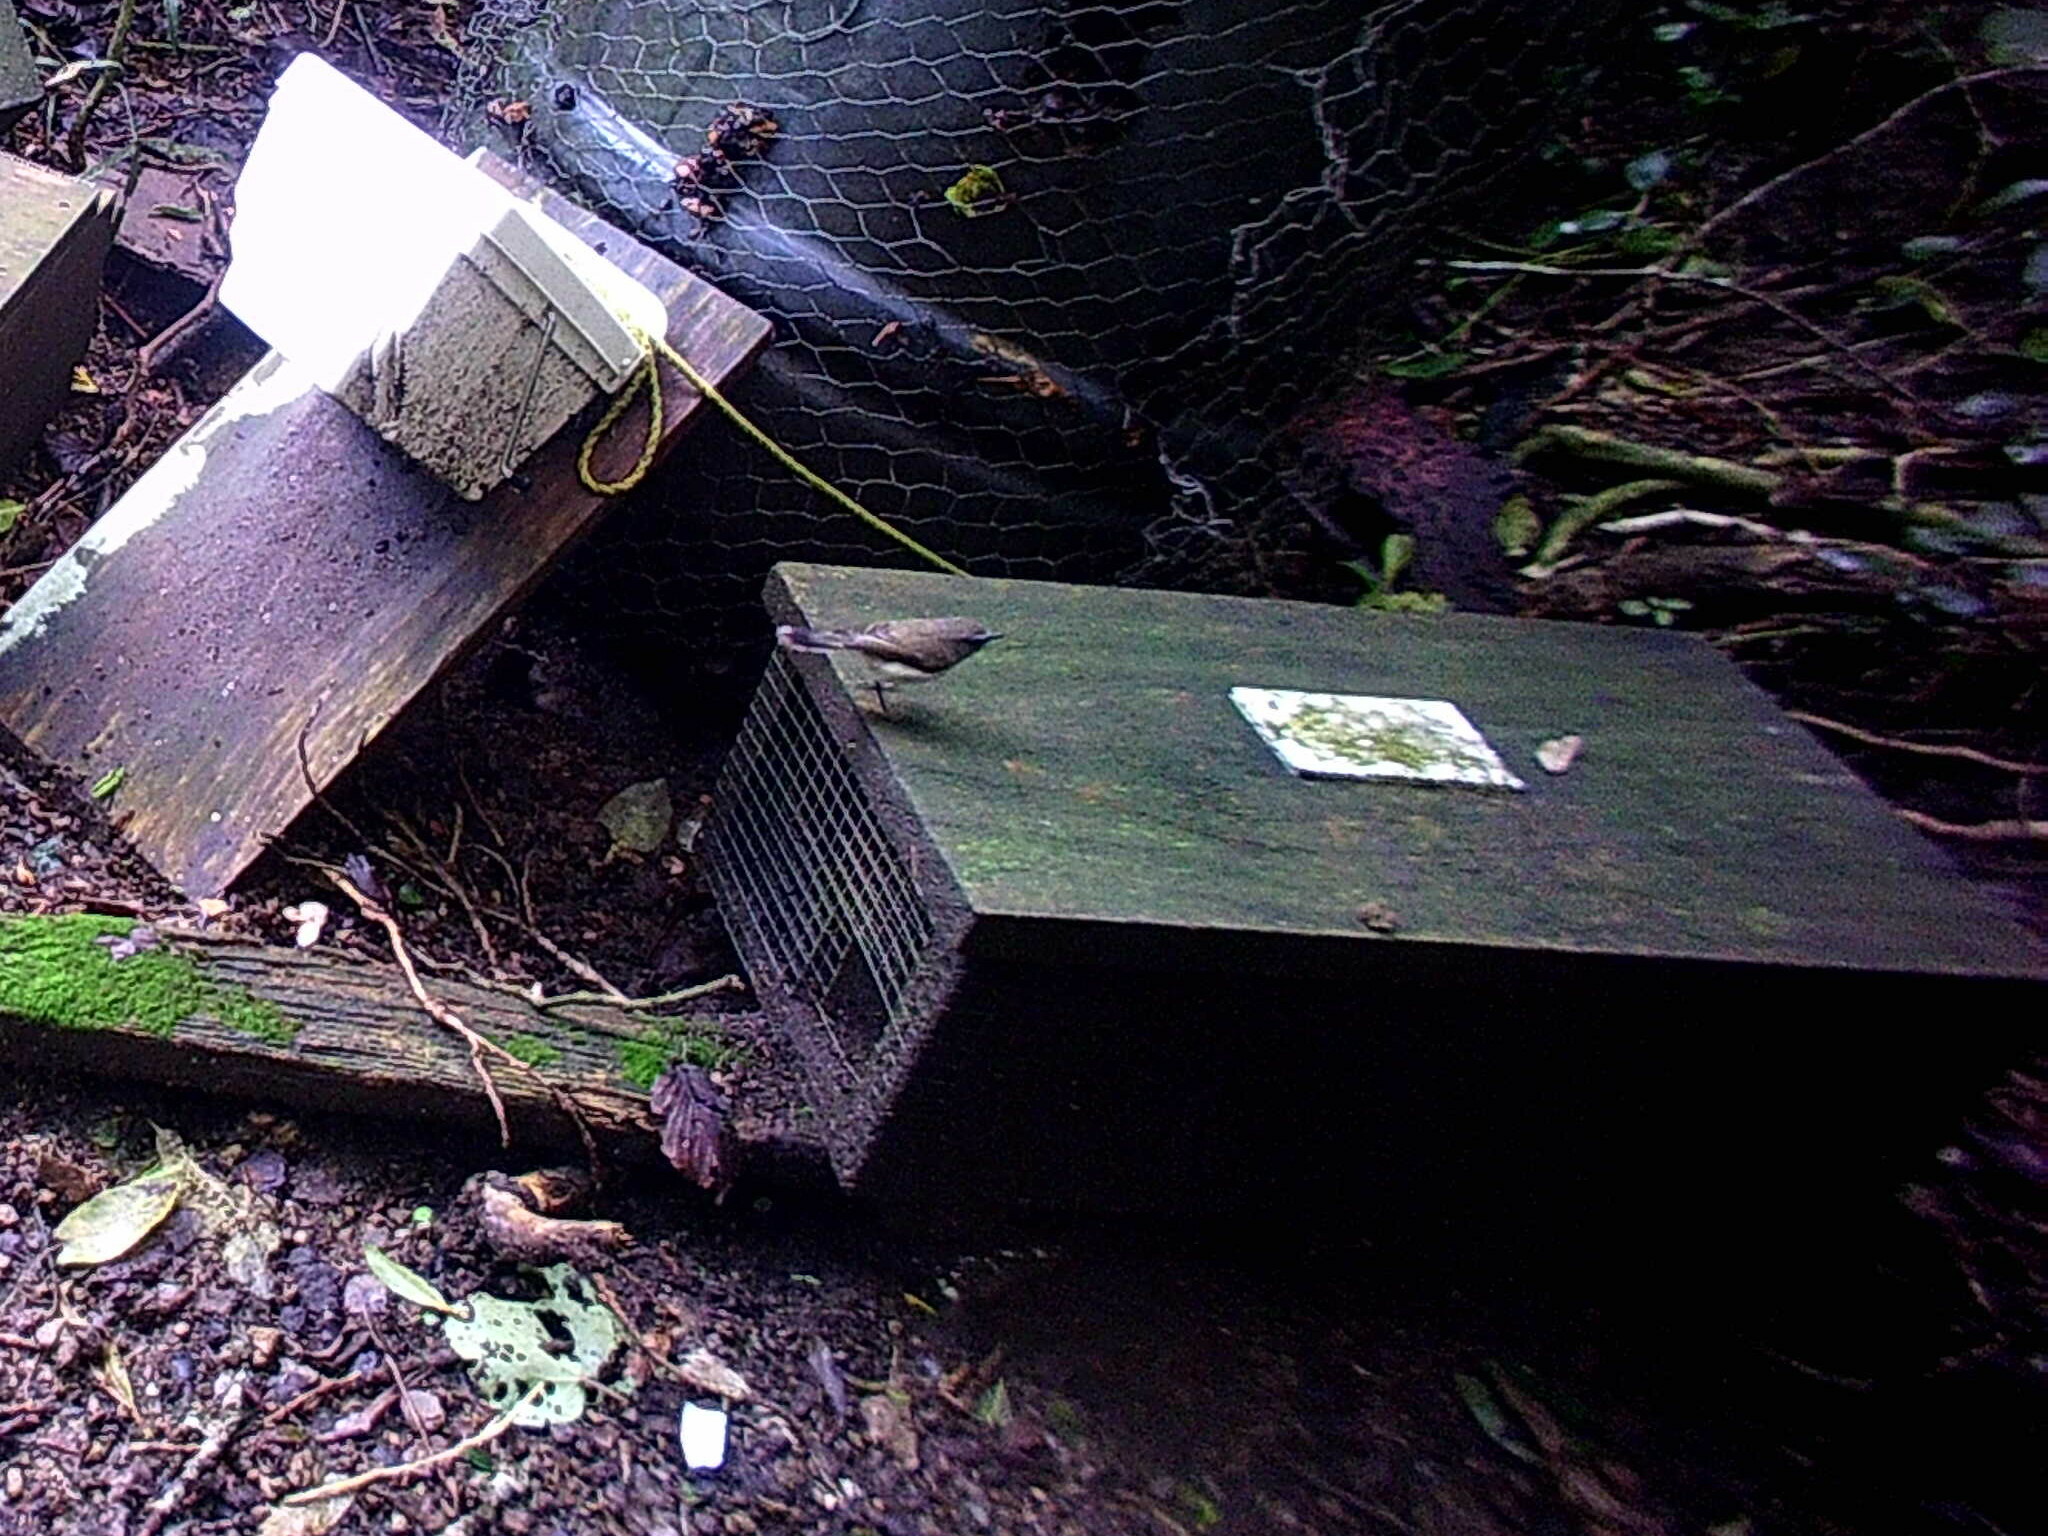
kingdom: Animalia
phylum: Chordata
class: Aves
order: Passeriformes
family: Acanthizidae
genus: Gerygone
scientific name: Gerygone igata
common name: Grey gerygone
